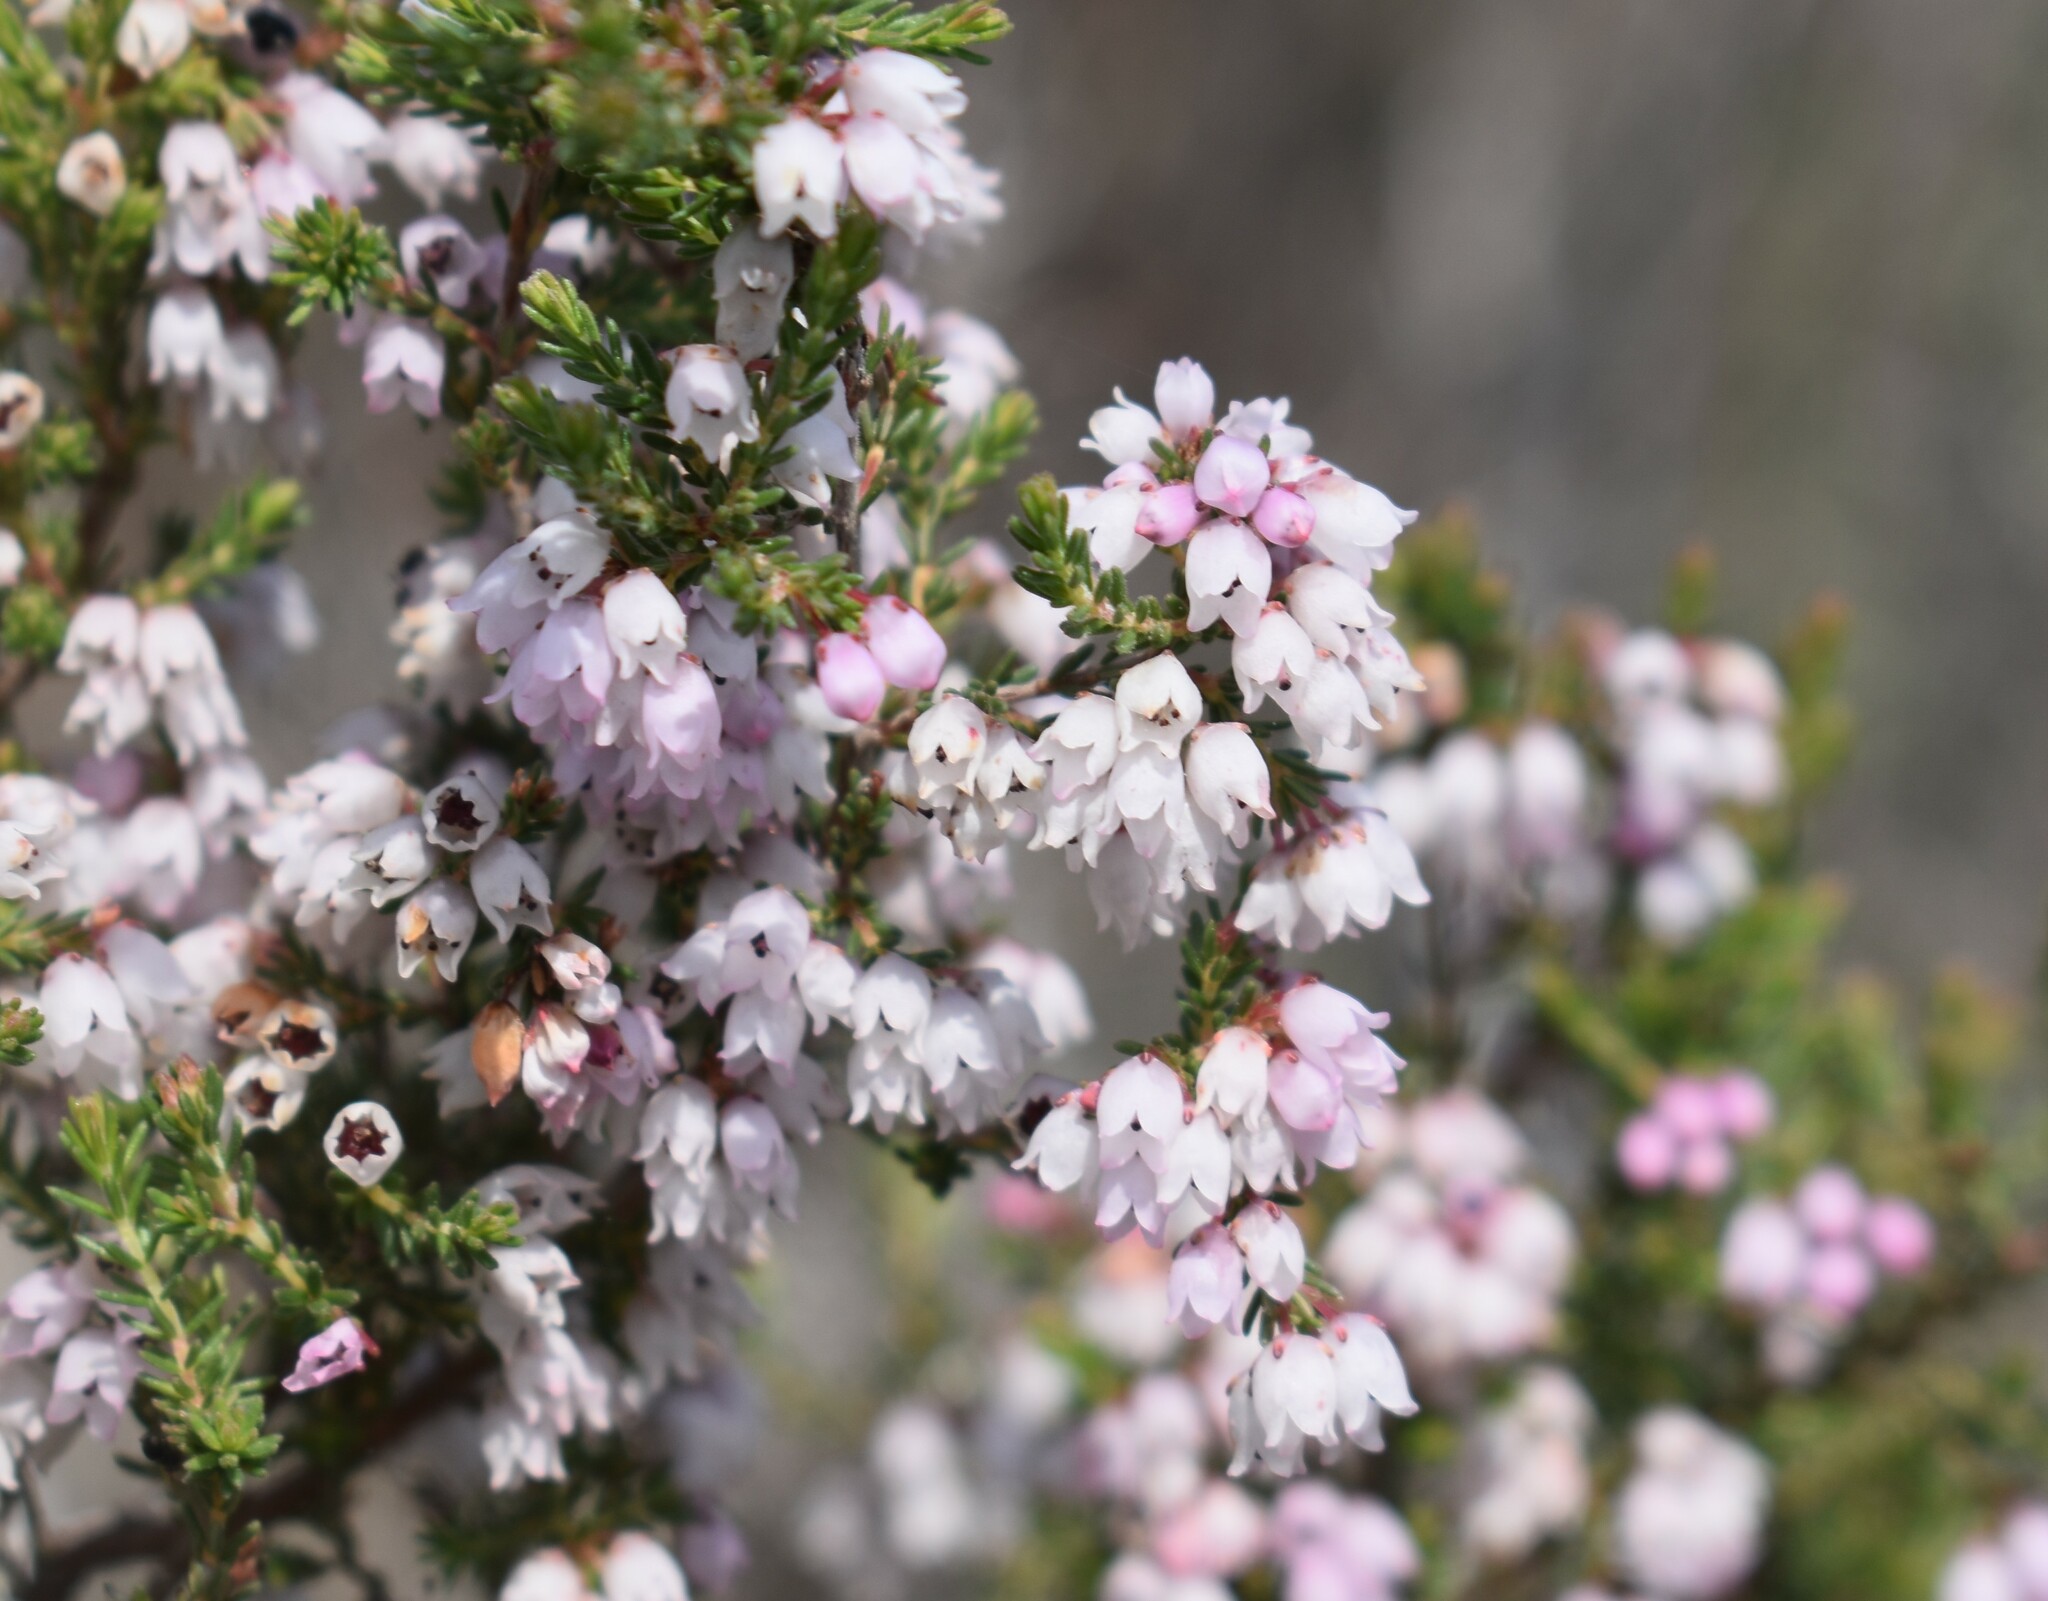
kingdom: Plantae
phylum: Tracheophyta
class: Magnoliopsida
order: Ericales
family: Ericaceae
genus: Erica
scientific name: Erica quadrangularis
